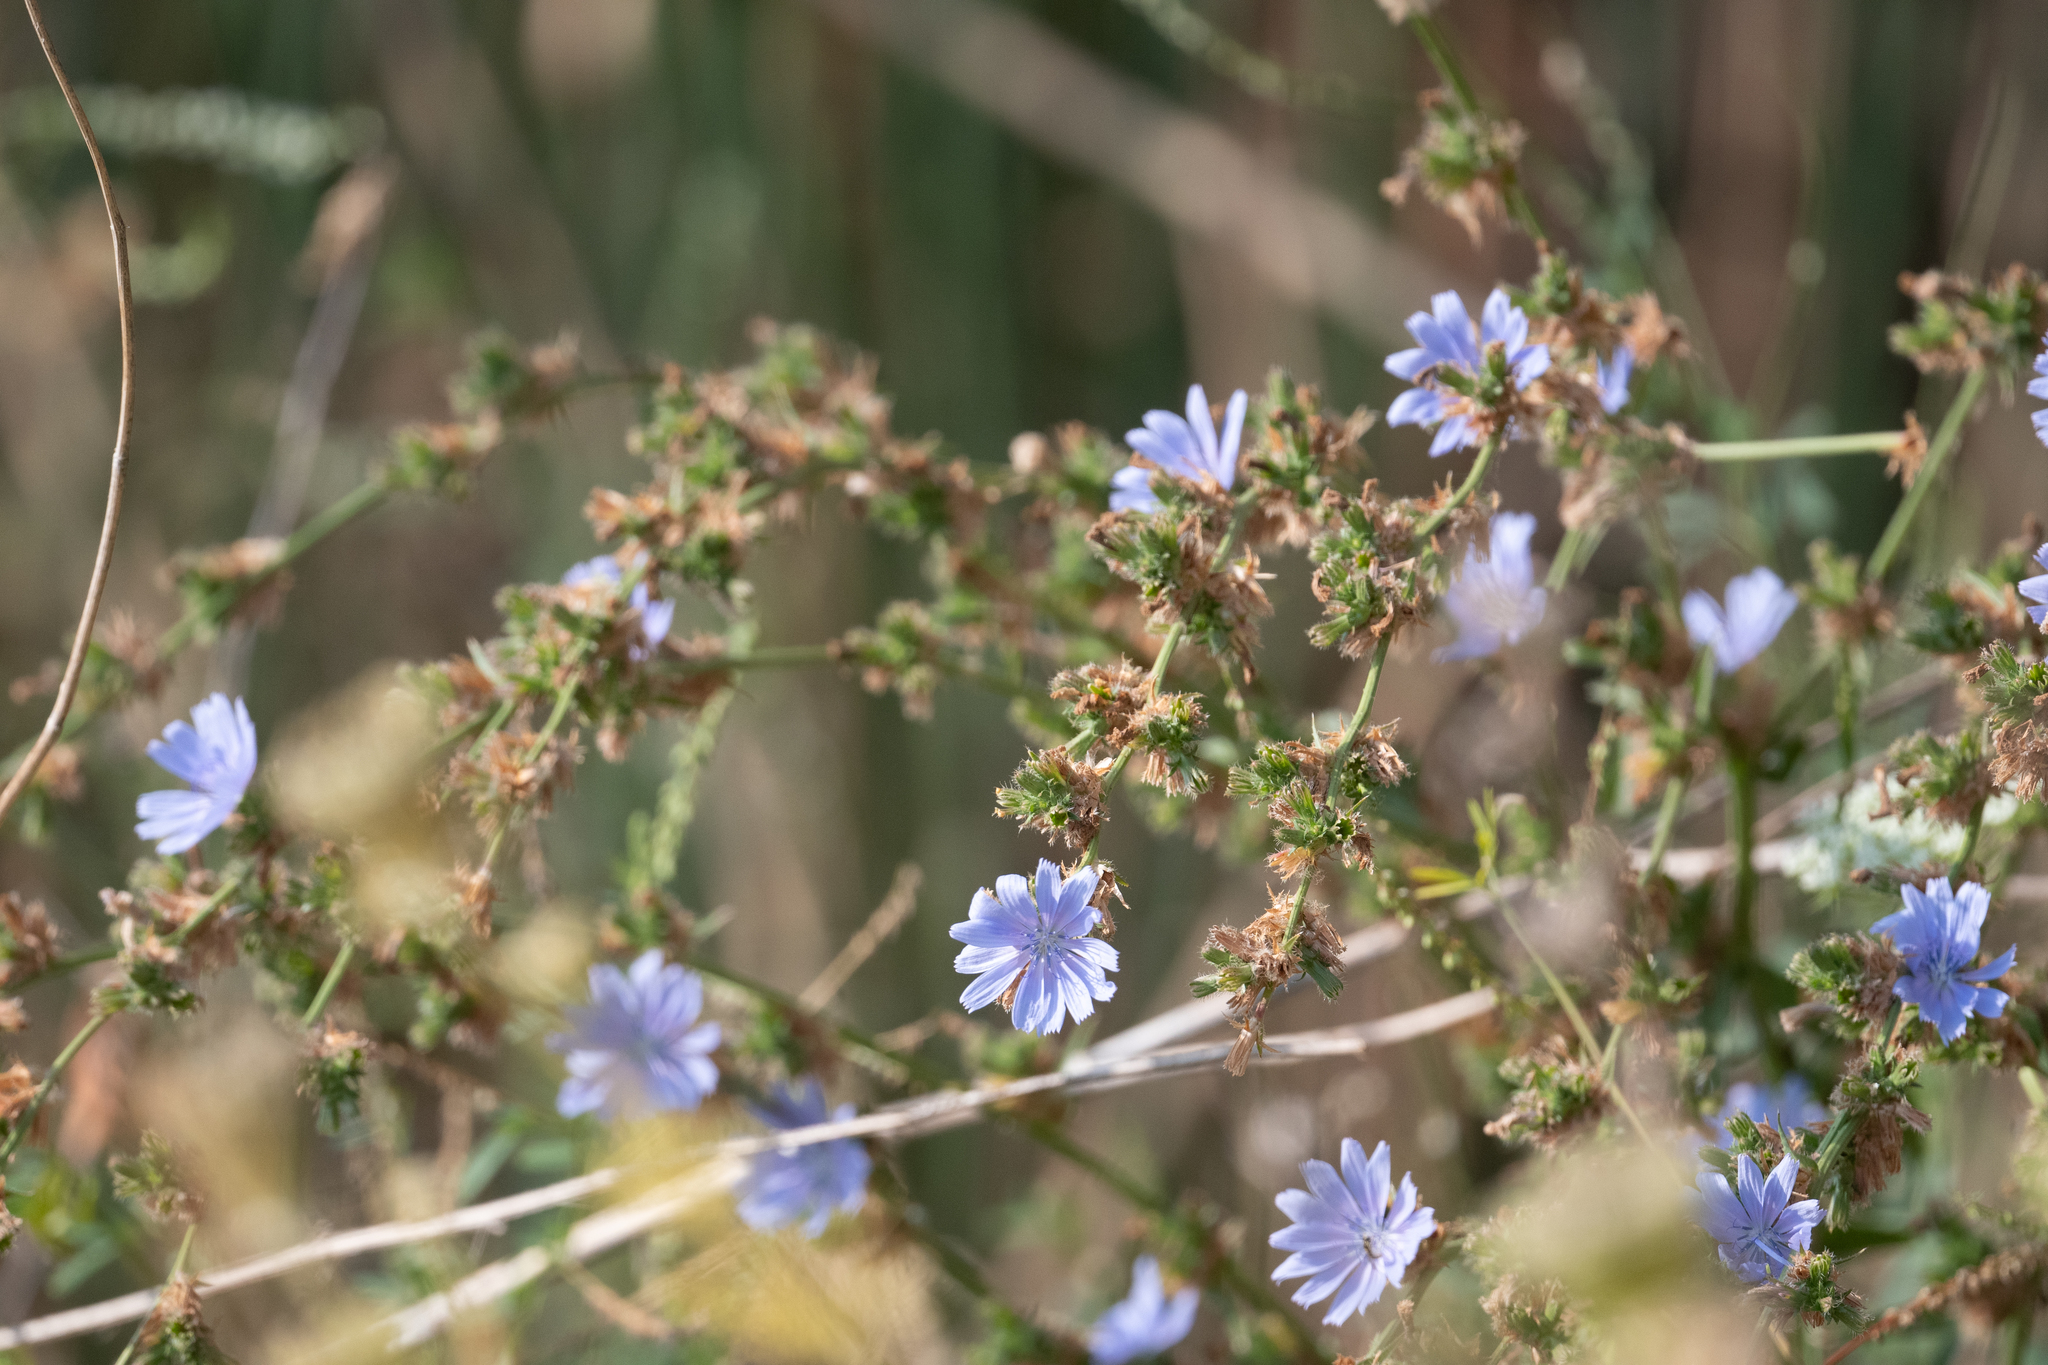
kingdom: Plantae
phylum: Tracheophyta
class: Magnoliopsida
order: Asterales
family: Asteraceae
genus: Cichorium
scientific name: Cichorium intybus
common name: Chicory
